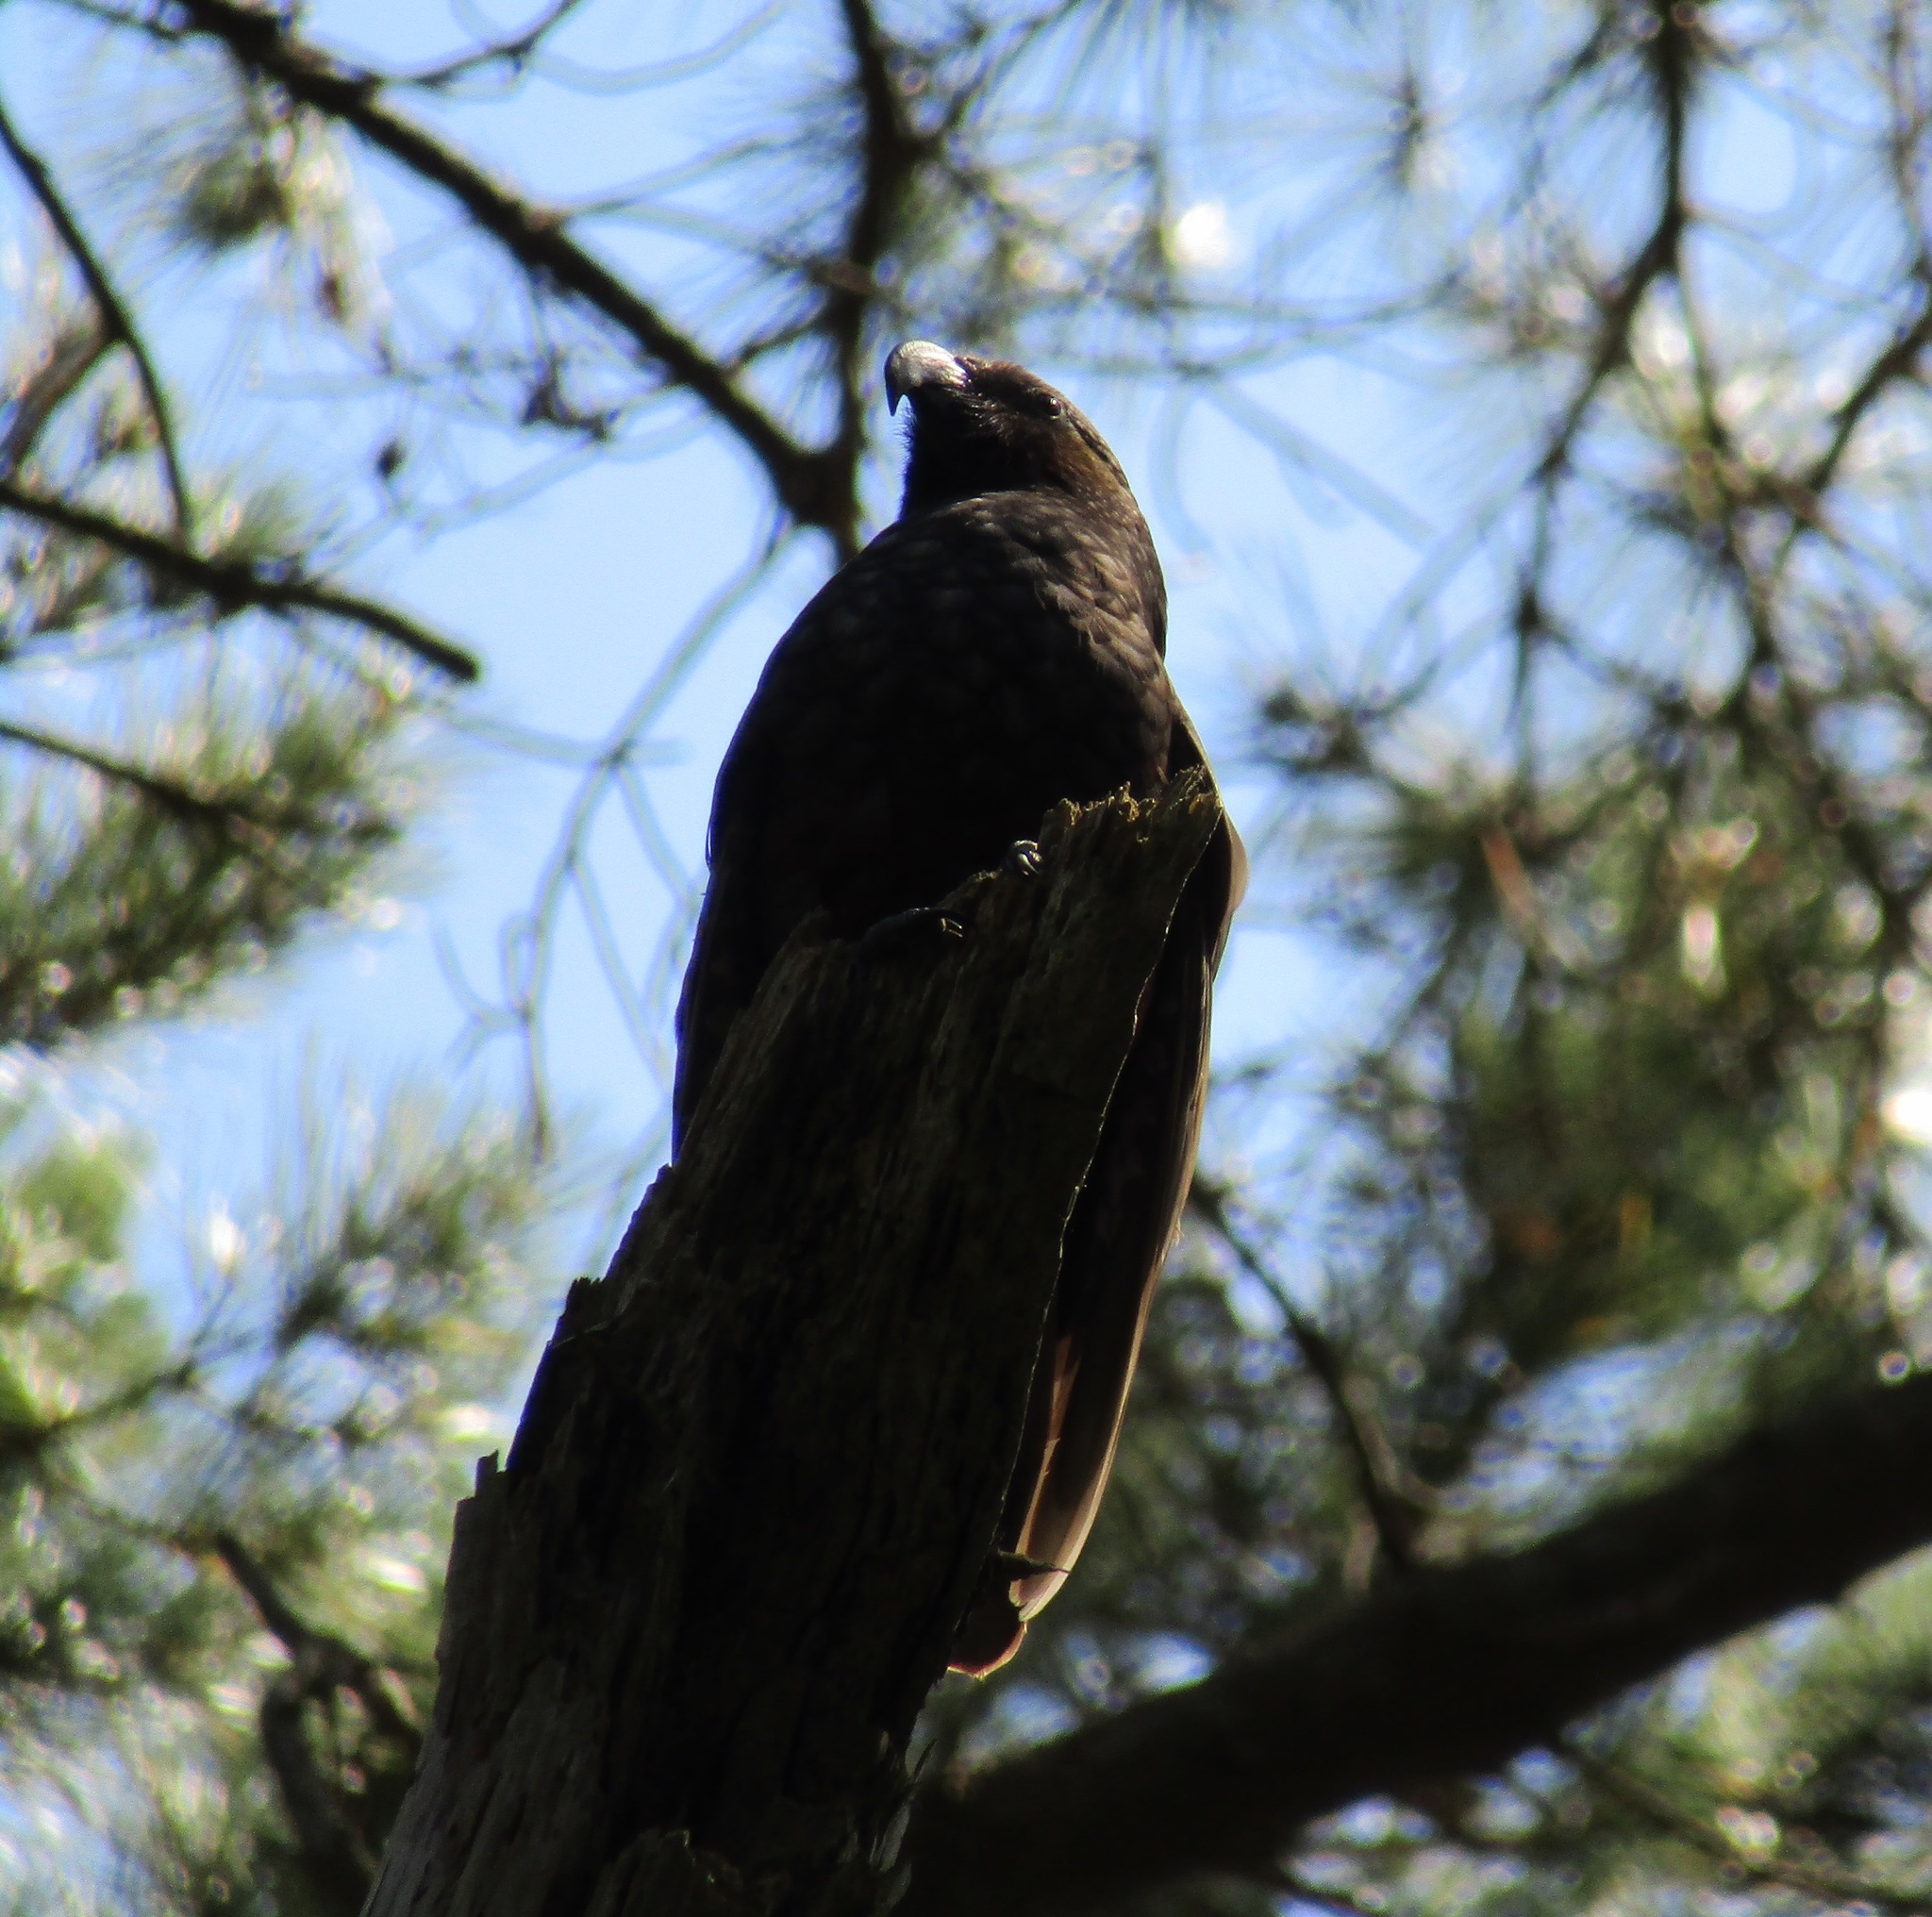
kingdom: Animalia
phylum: Chordata
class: Aves
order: Psittaciformes
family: Psittacidae
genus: Nestor
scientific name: Nestor meridionalis
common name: New zealand kaka
